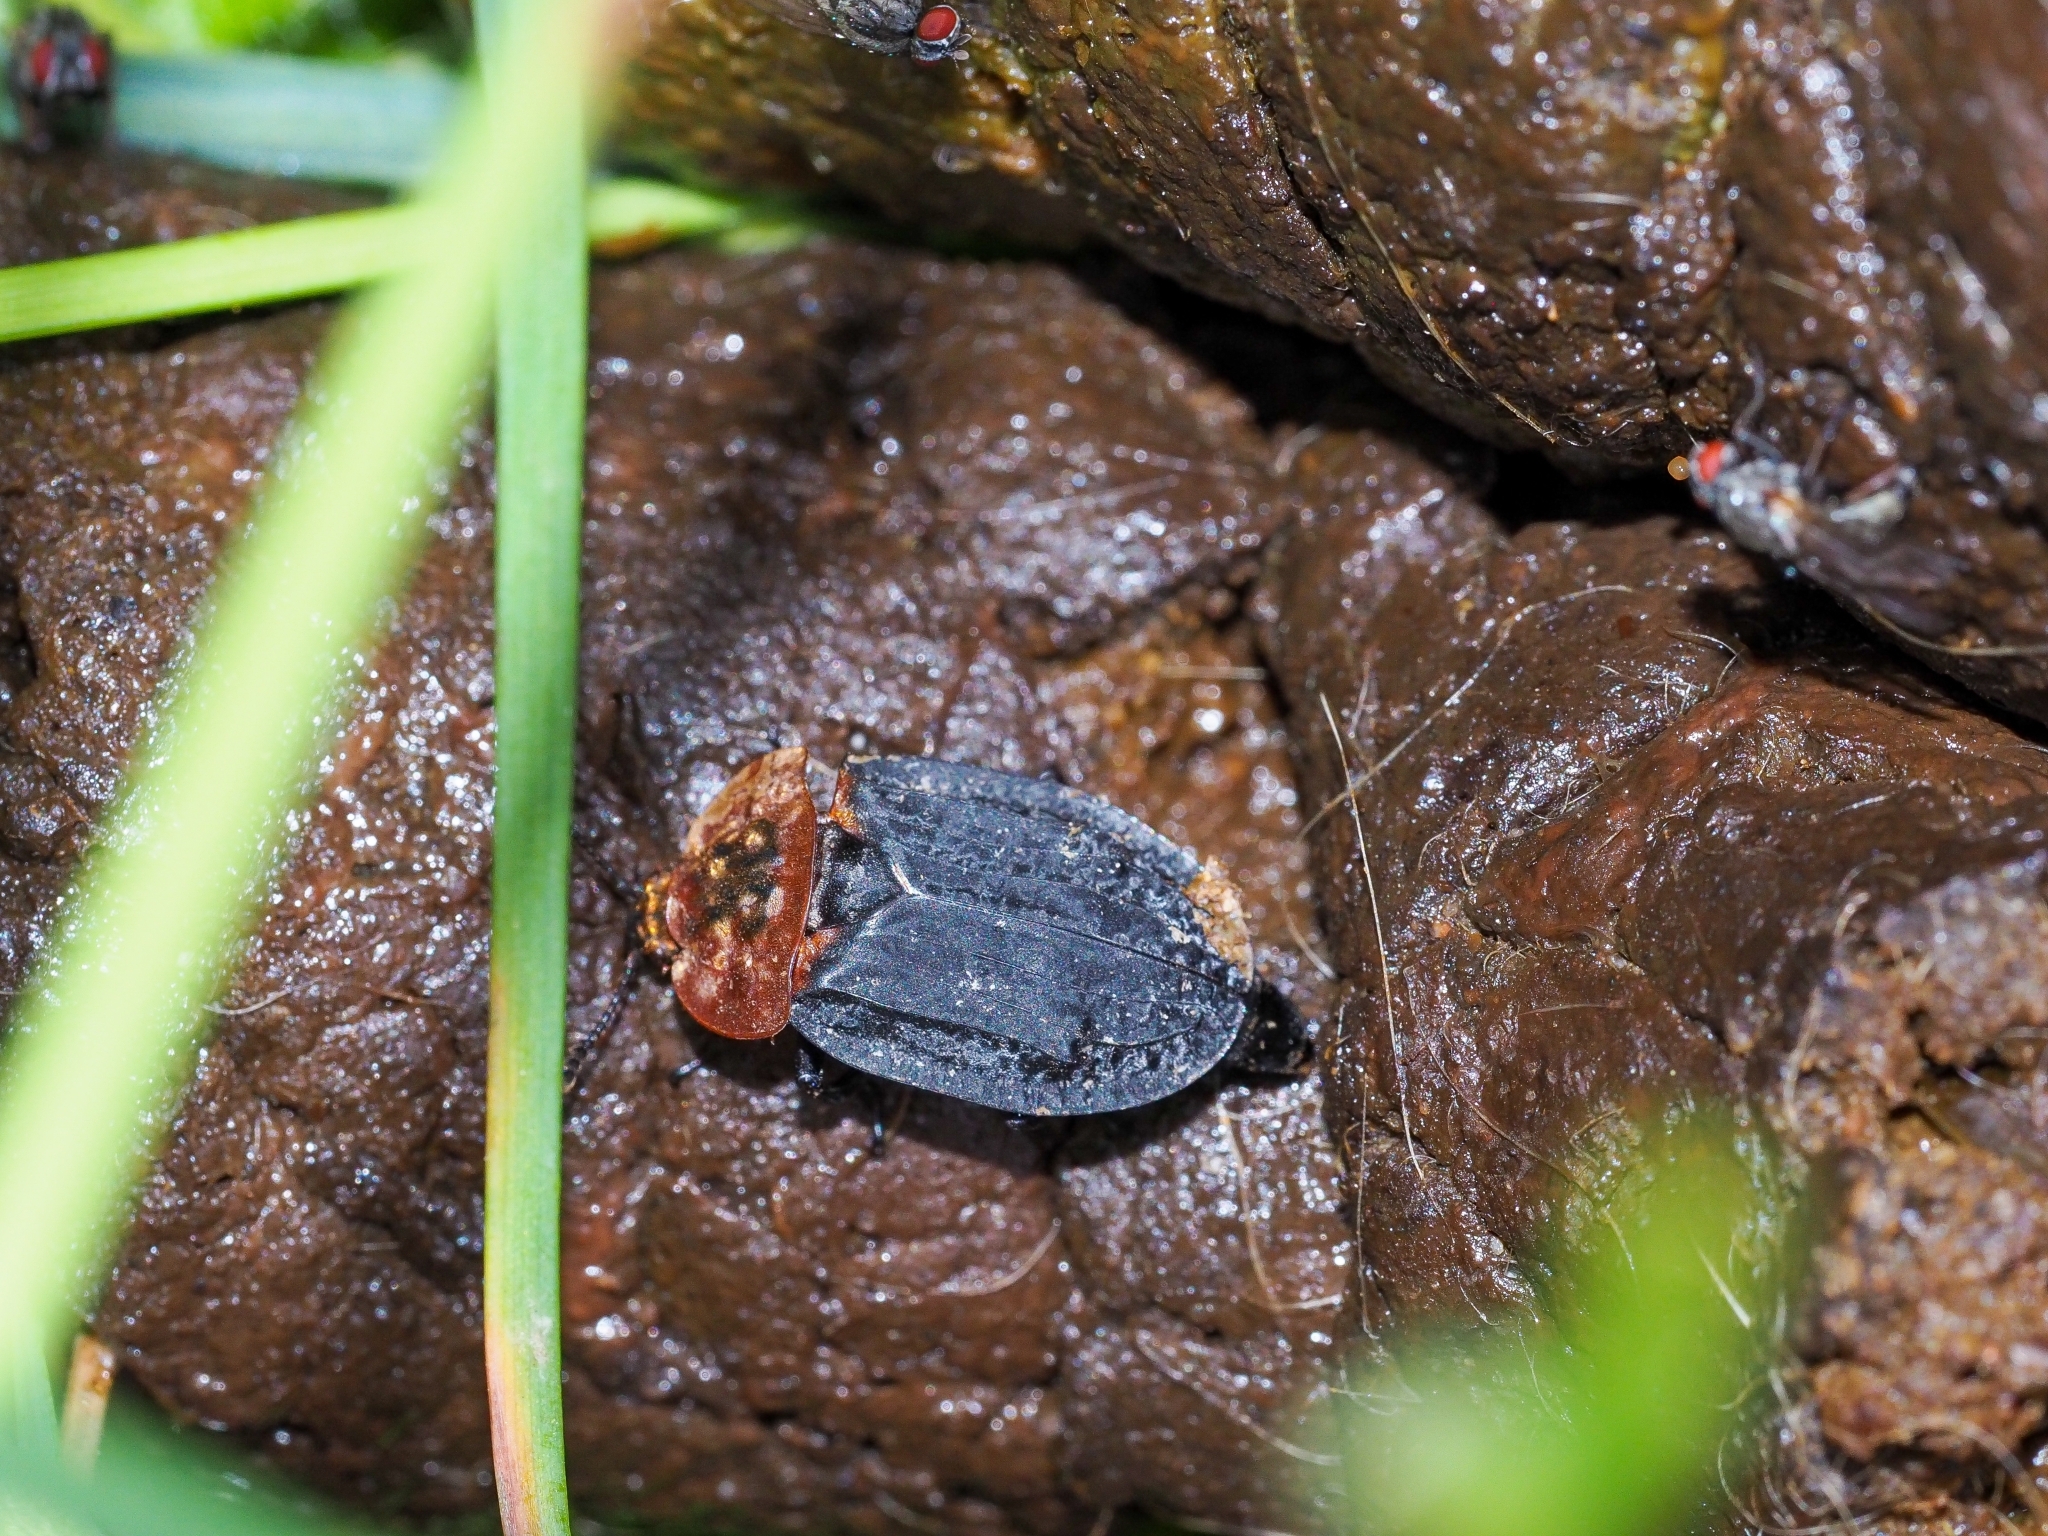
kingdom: Animalia
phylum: Arthropoda
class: Insecta
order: Coleoptera
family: Staphylinidae
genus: Oiceoptoma
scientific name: Oiceoptoma thoracicum
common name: Red-breasted carrion beetle
